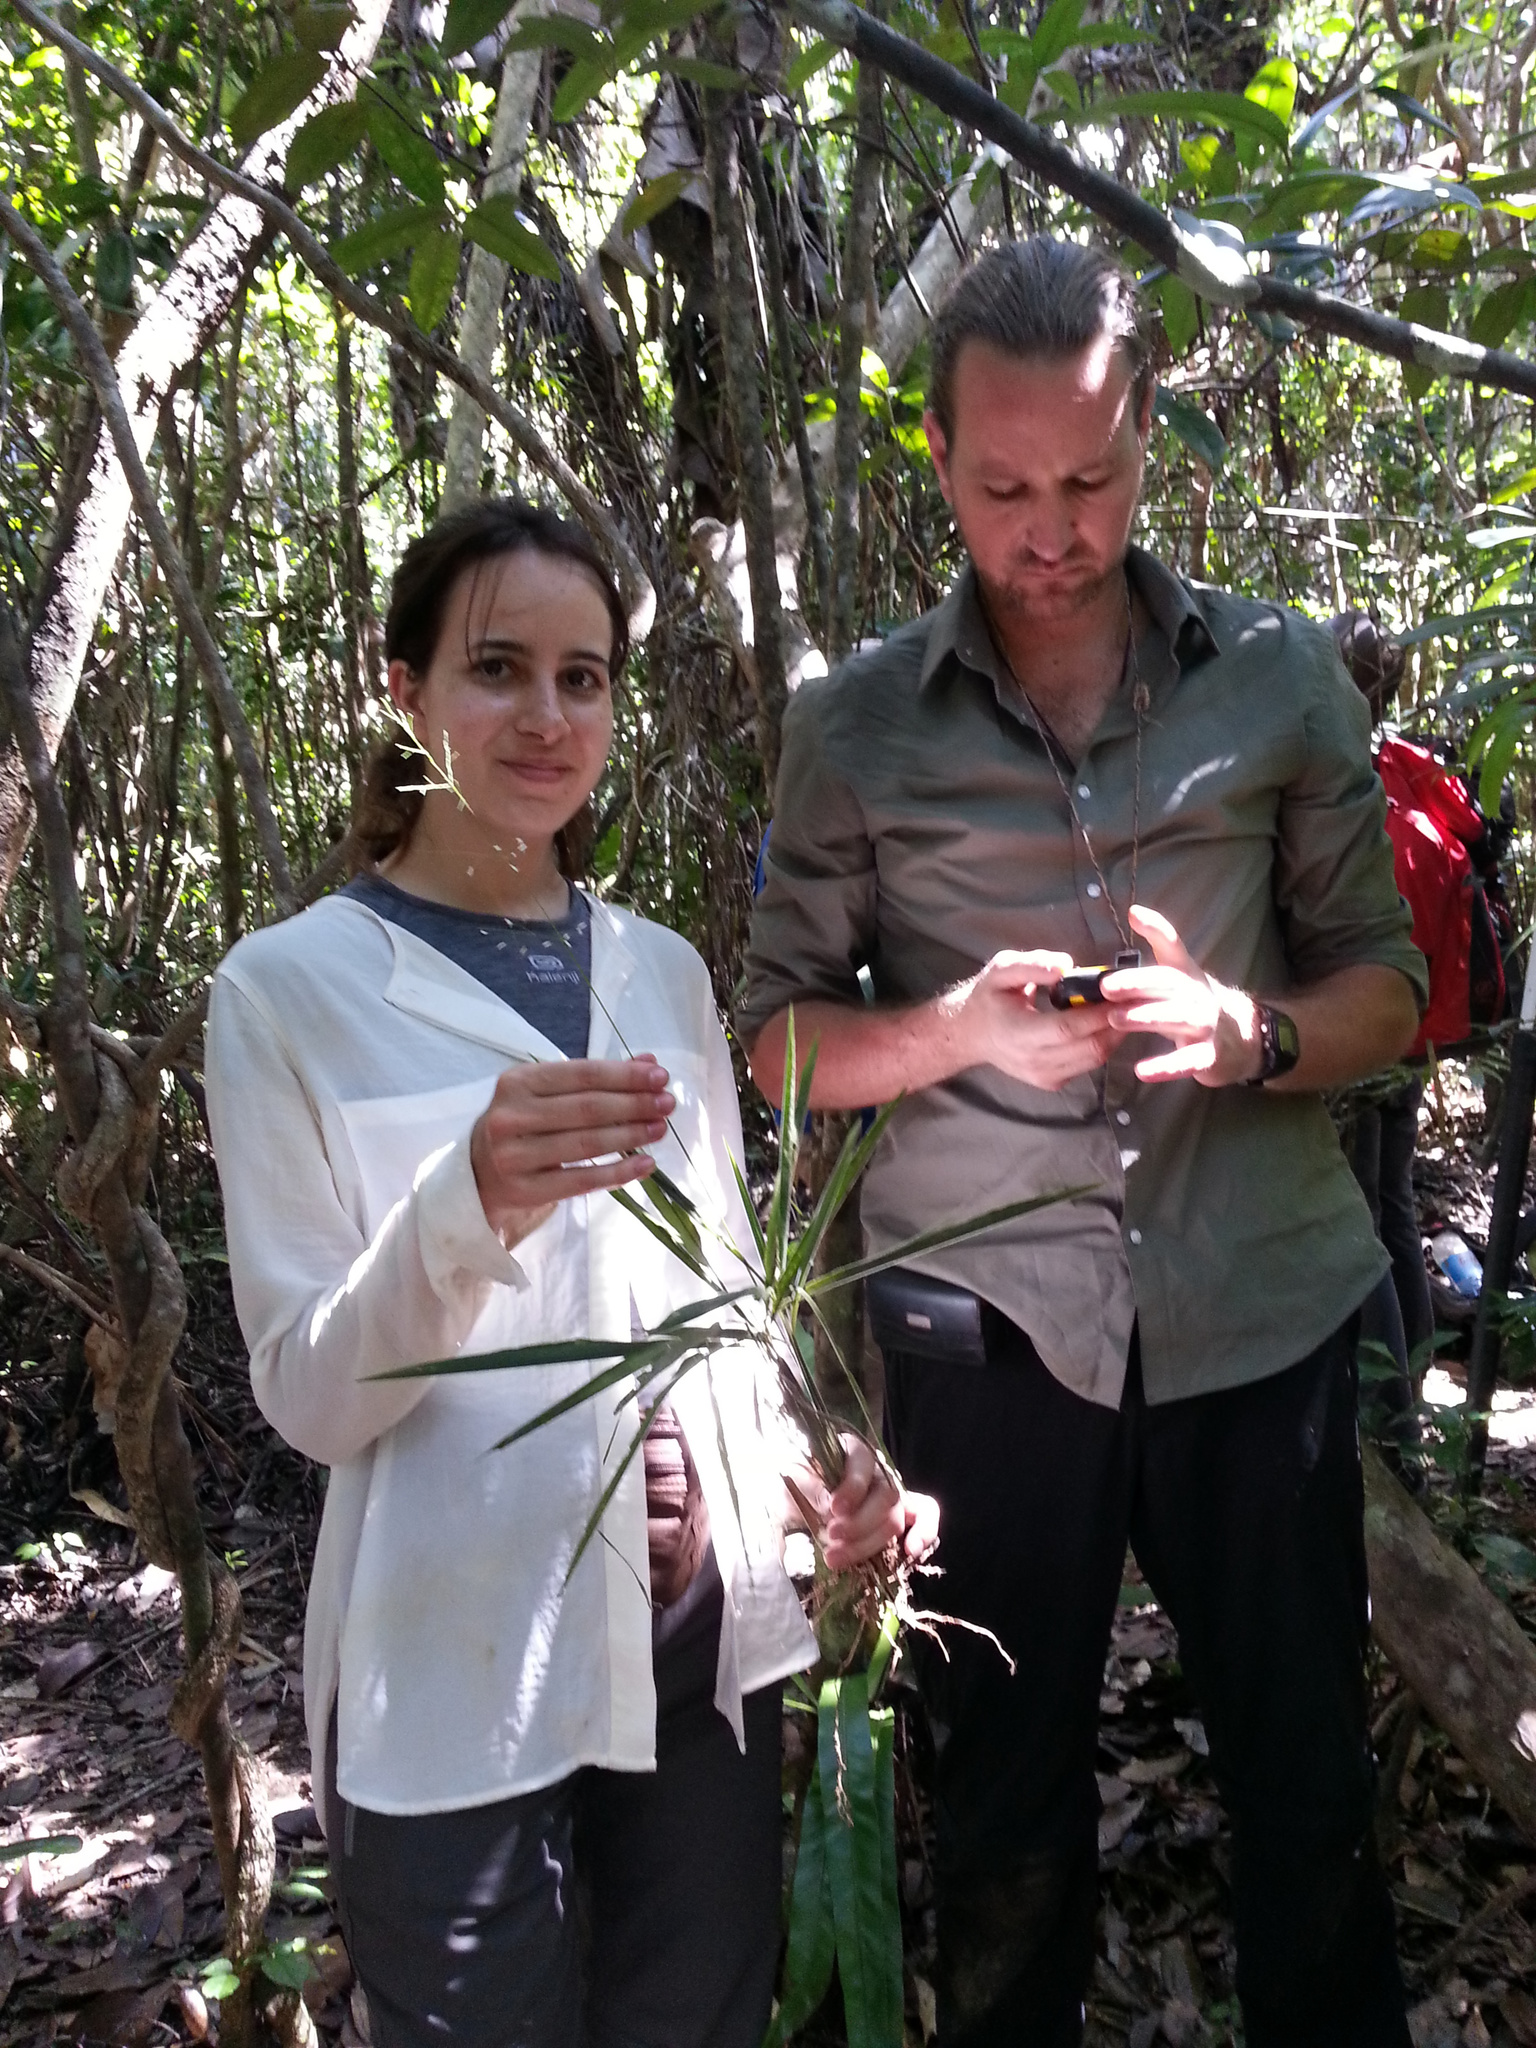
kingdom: Plantae
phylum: Tracheophyta
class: Liliopsida
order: Poales
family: Poaceae
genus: Maltebrunia
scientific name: Maltebrunia leersioides
